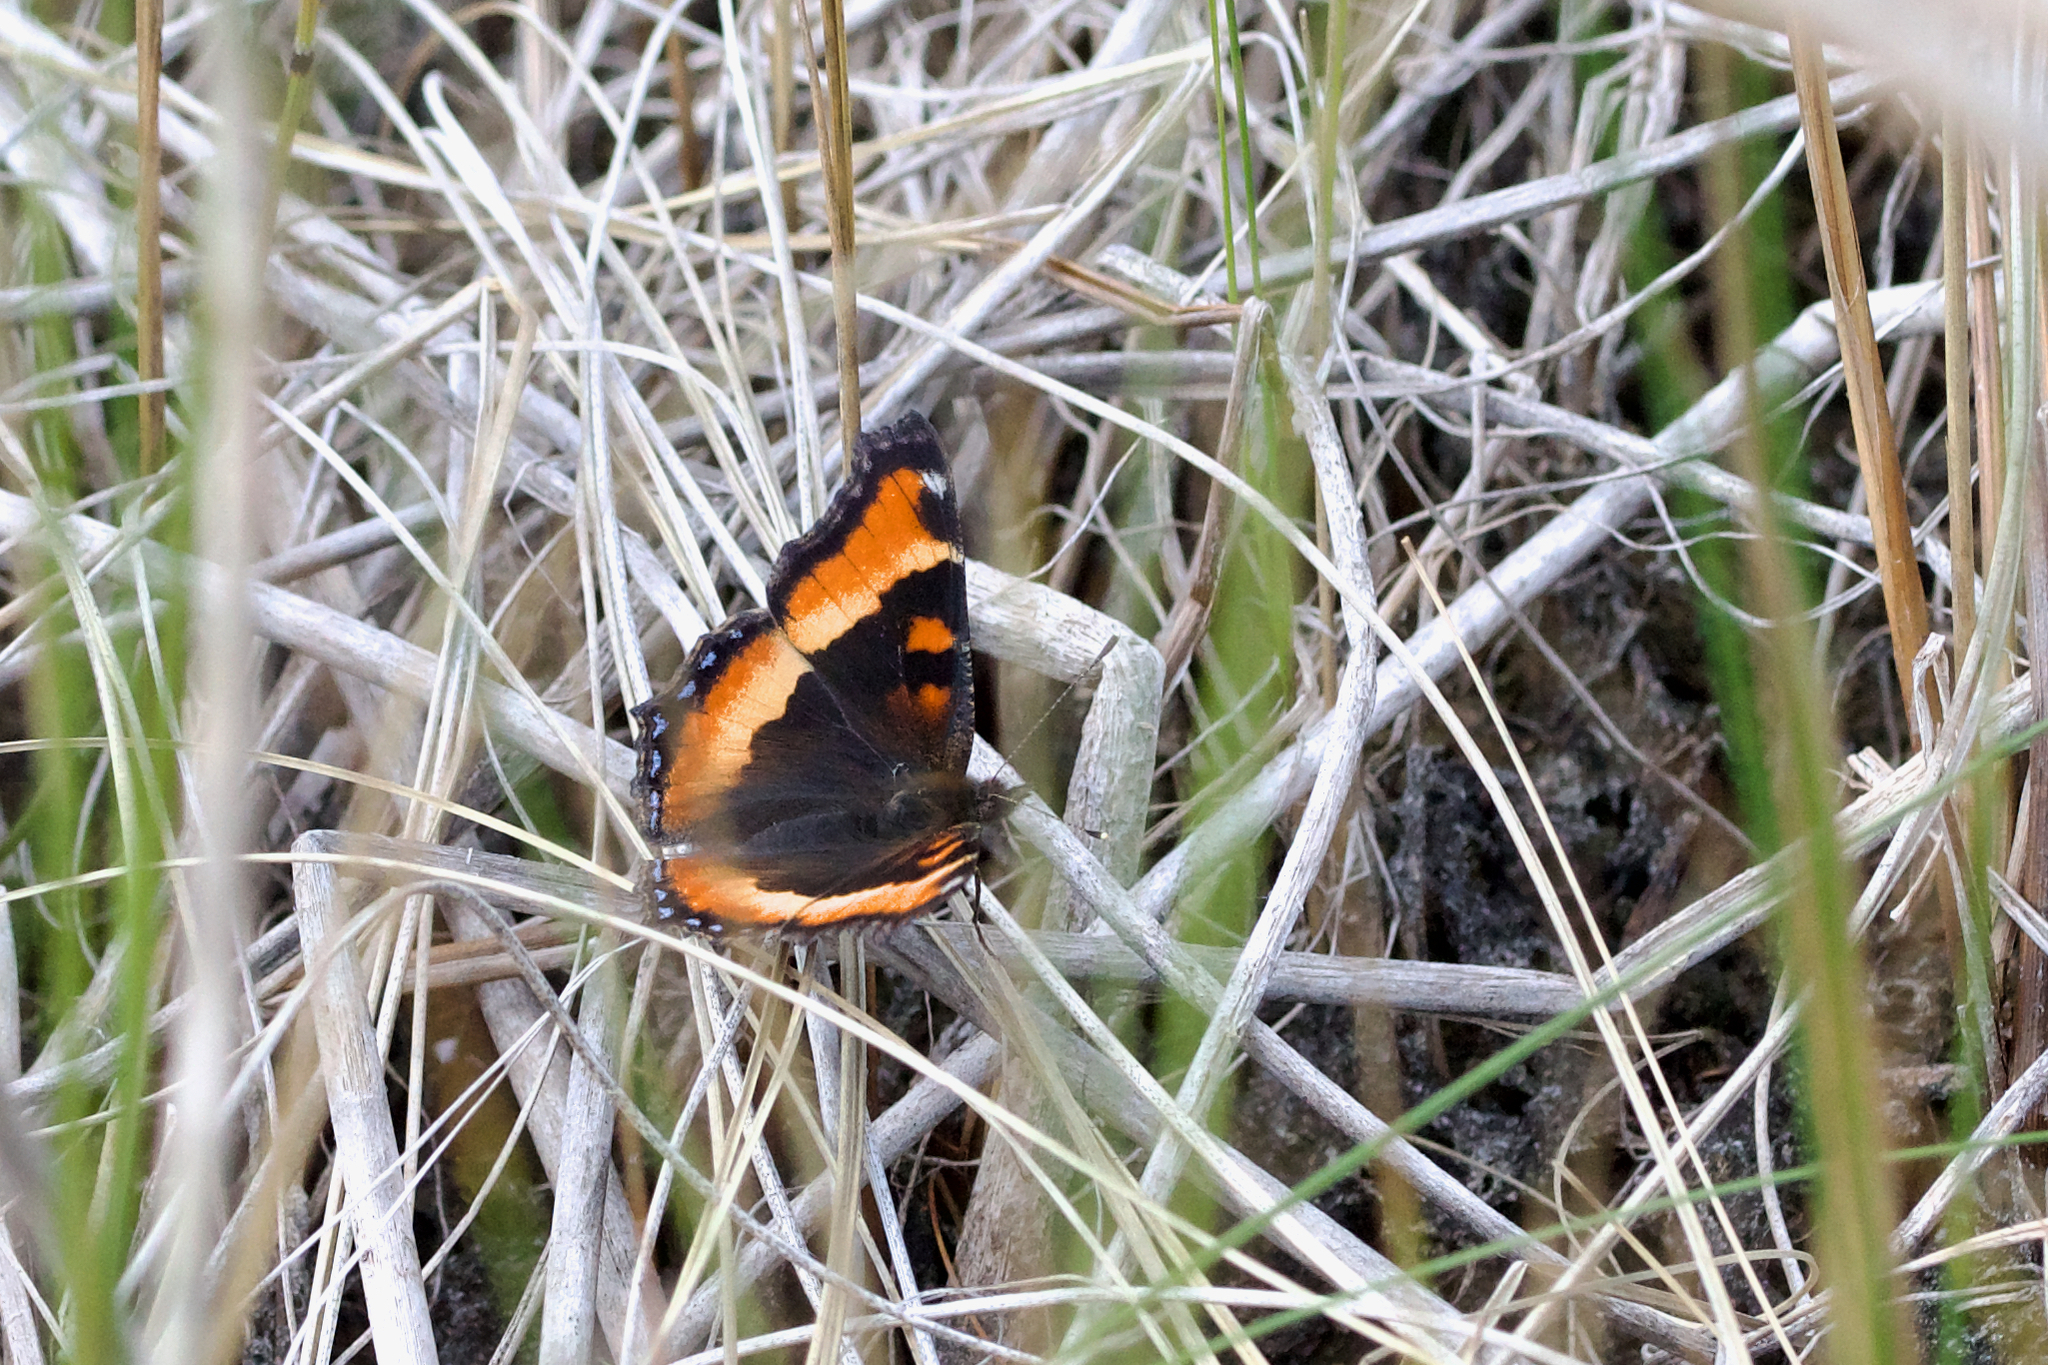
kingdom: Animalia
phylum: Arthropoda
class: Insecta
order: Lepidoptera
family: Nymphalidae
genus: Aglais
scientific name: Aglais milberti
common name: Milbert's tortoiseshell
